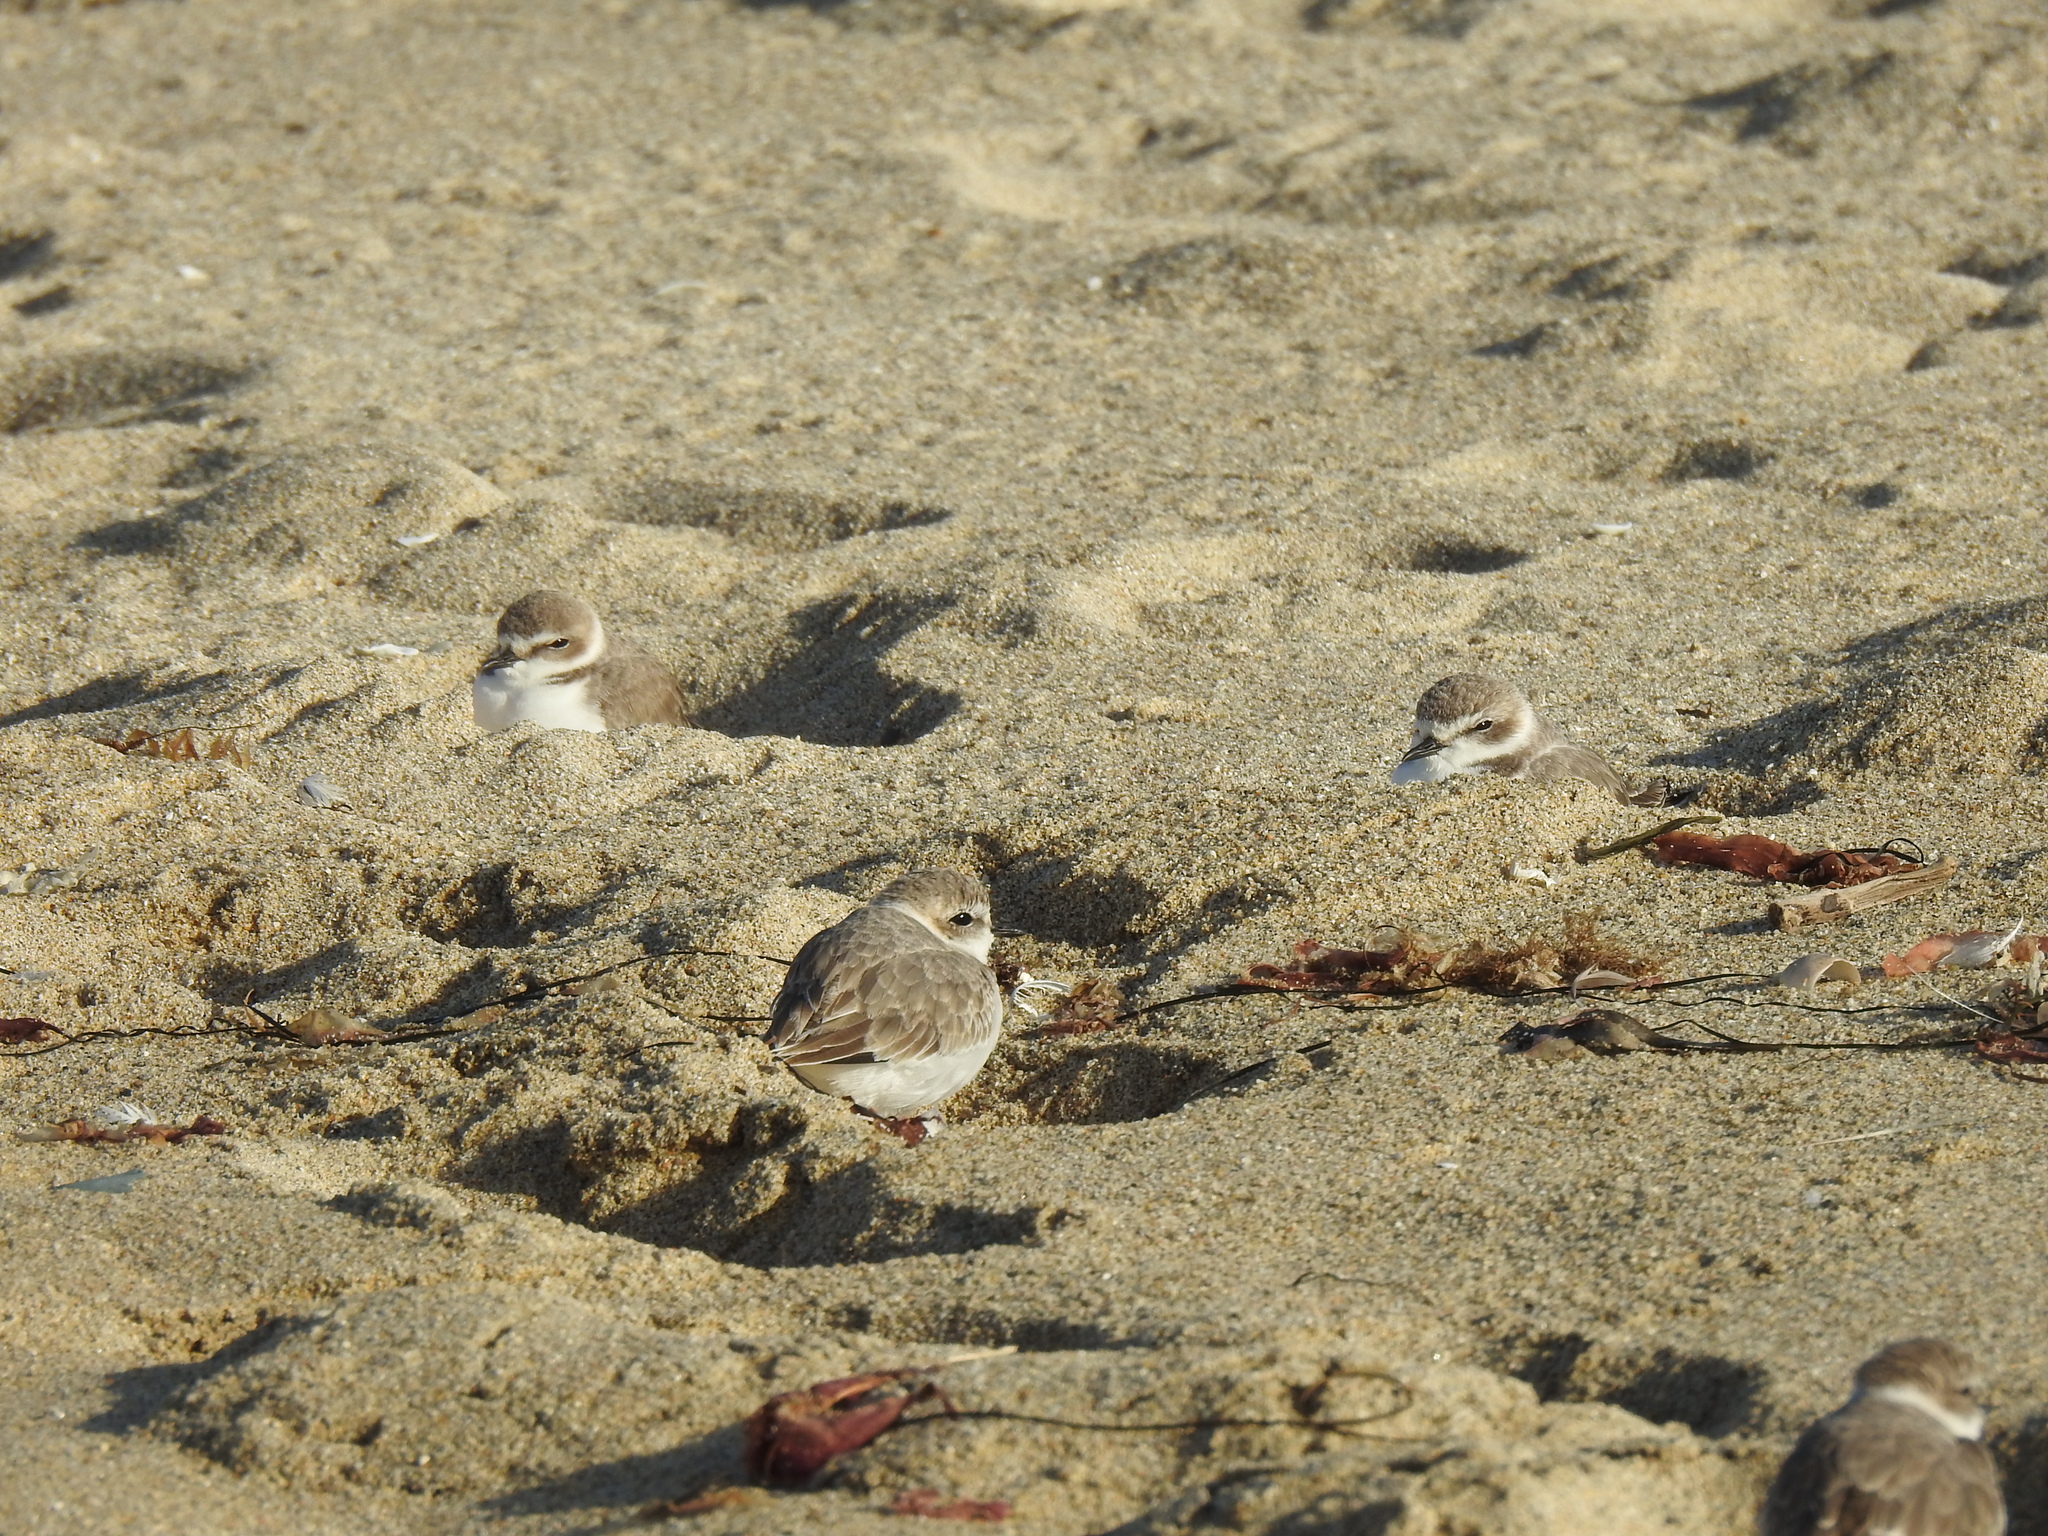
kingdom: Animalia
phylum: Chordata
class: Aves
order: Charadriiformes
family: Charadriidae
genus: Anarhynchus
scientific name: Anarhynchus
